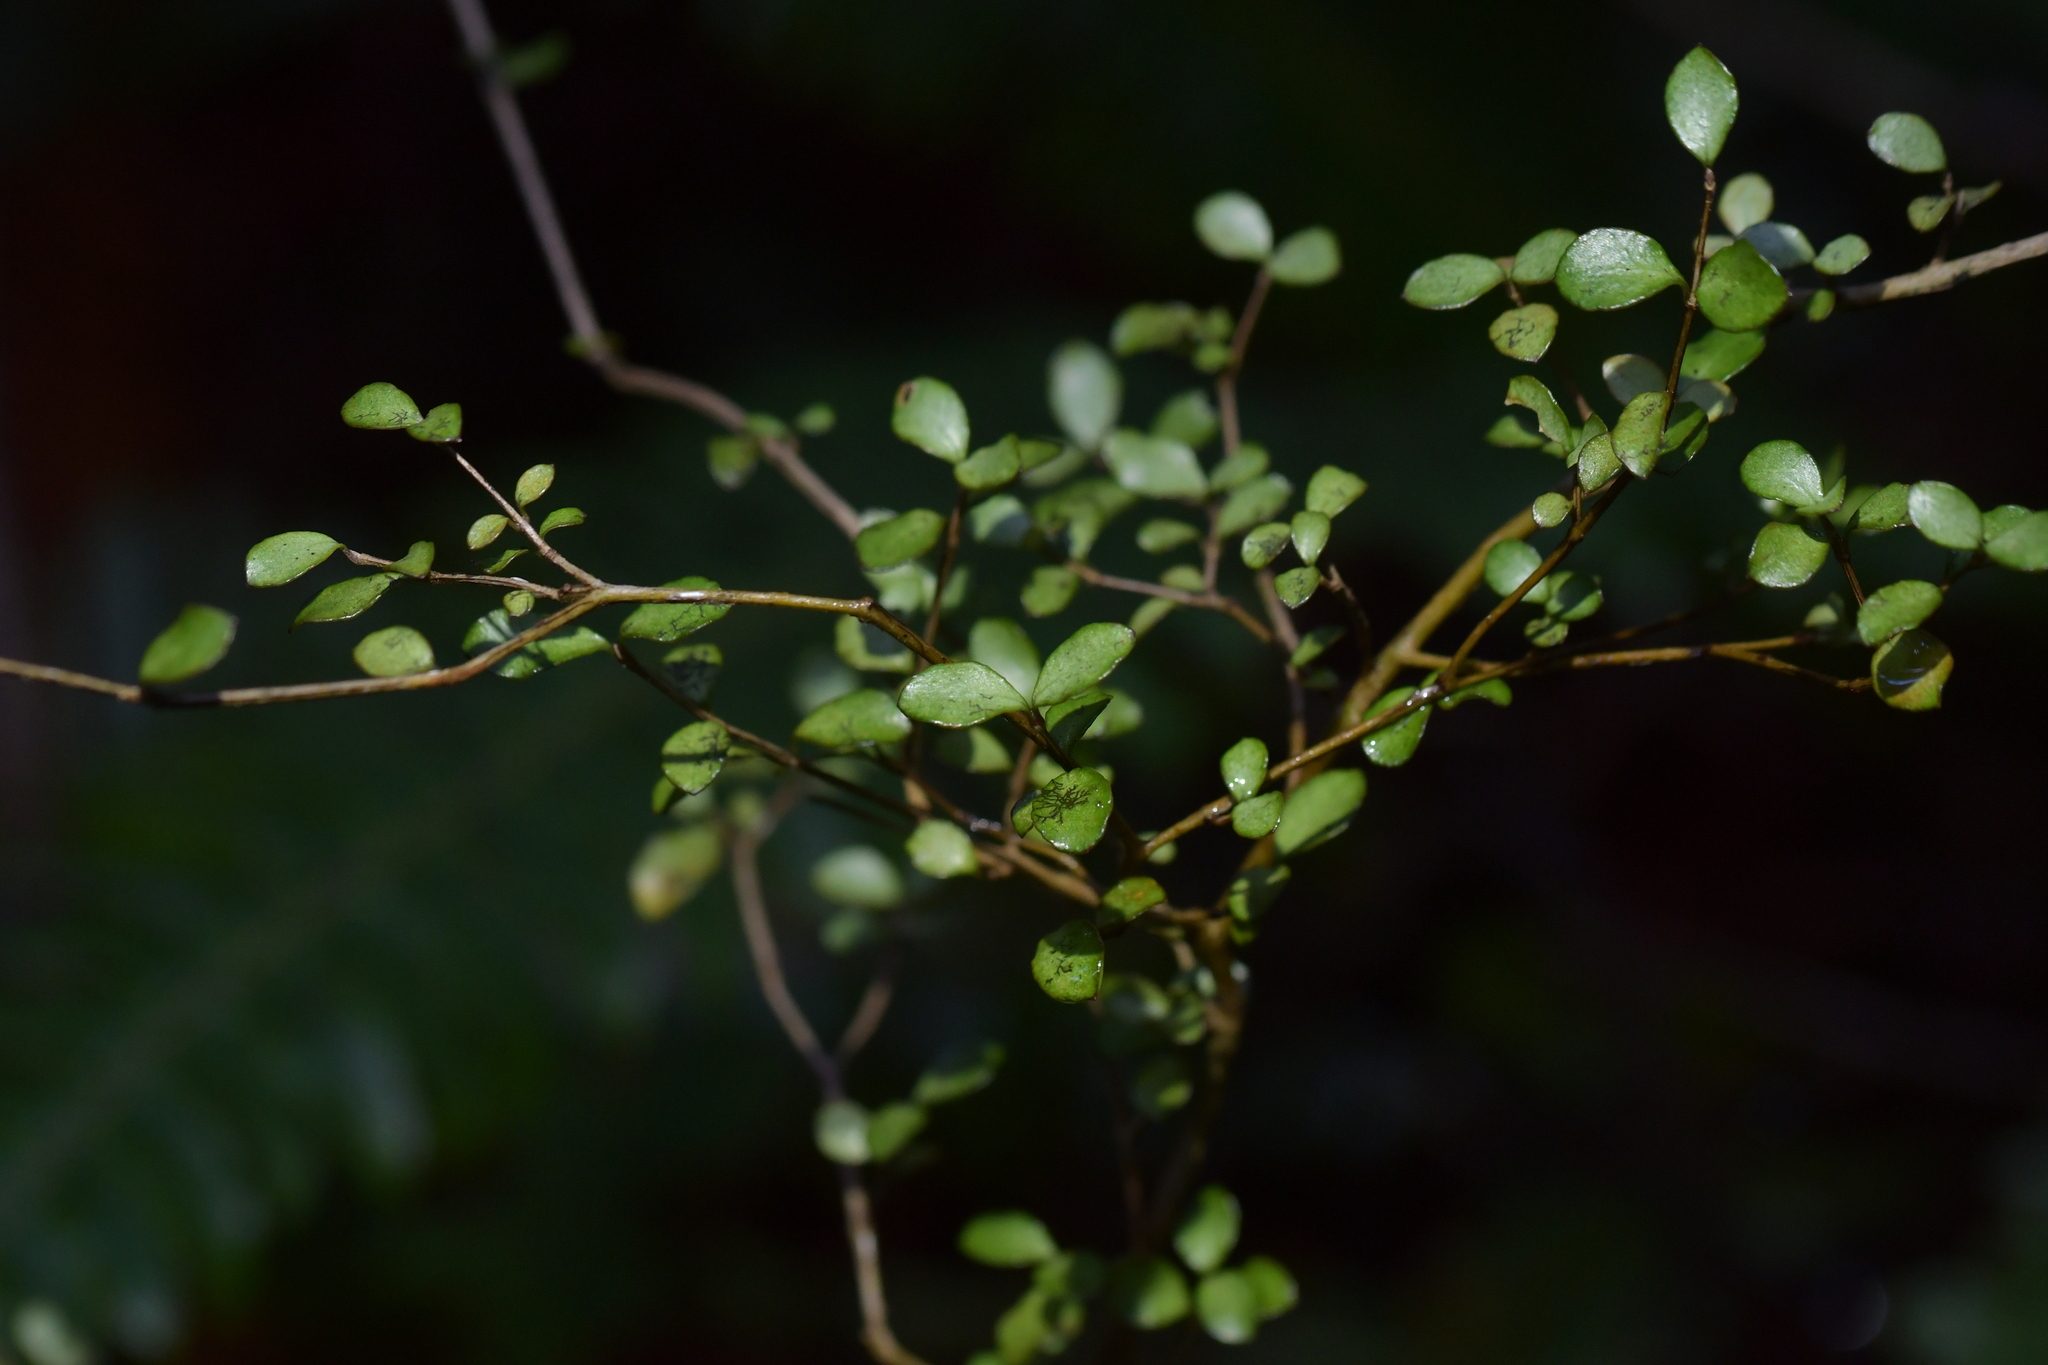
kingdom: Plantae
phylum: Tracheophyta
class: Magnoliopsida
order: Myrtales
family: Myrtaceae
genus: Neomyrtus
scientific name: Neomyrtus pedunculata
